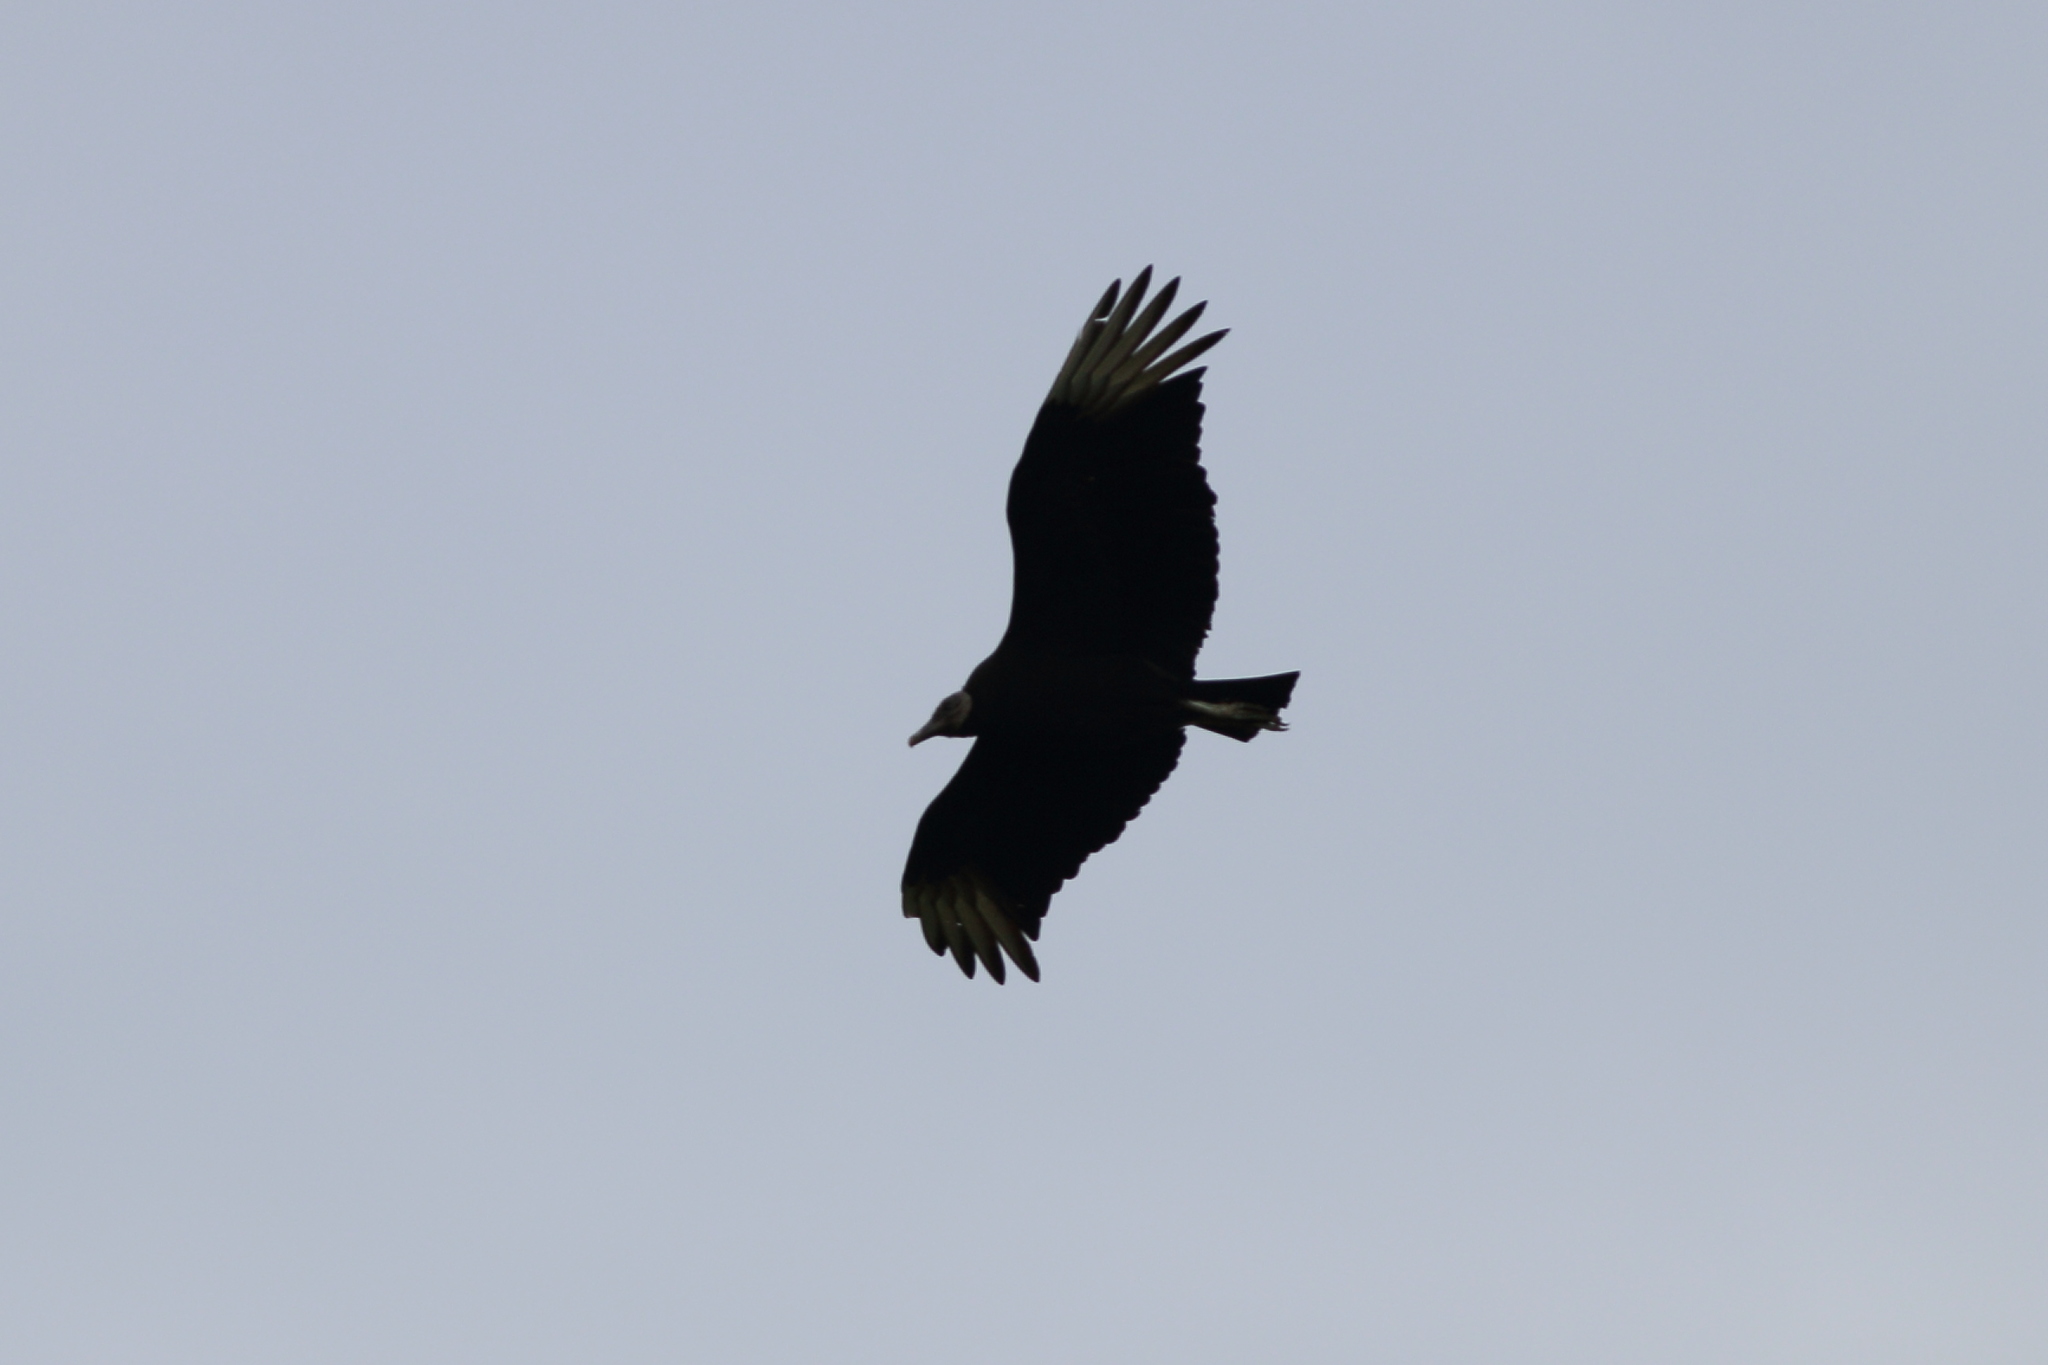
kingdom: Animalia
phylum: Chordata
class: Aves
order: Accipitriformes
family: Cathartidae
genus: Coragyps
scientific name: Coragyps atratus
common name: Black vulture
